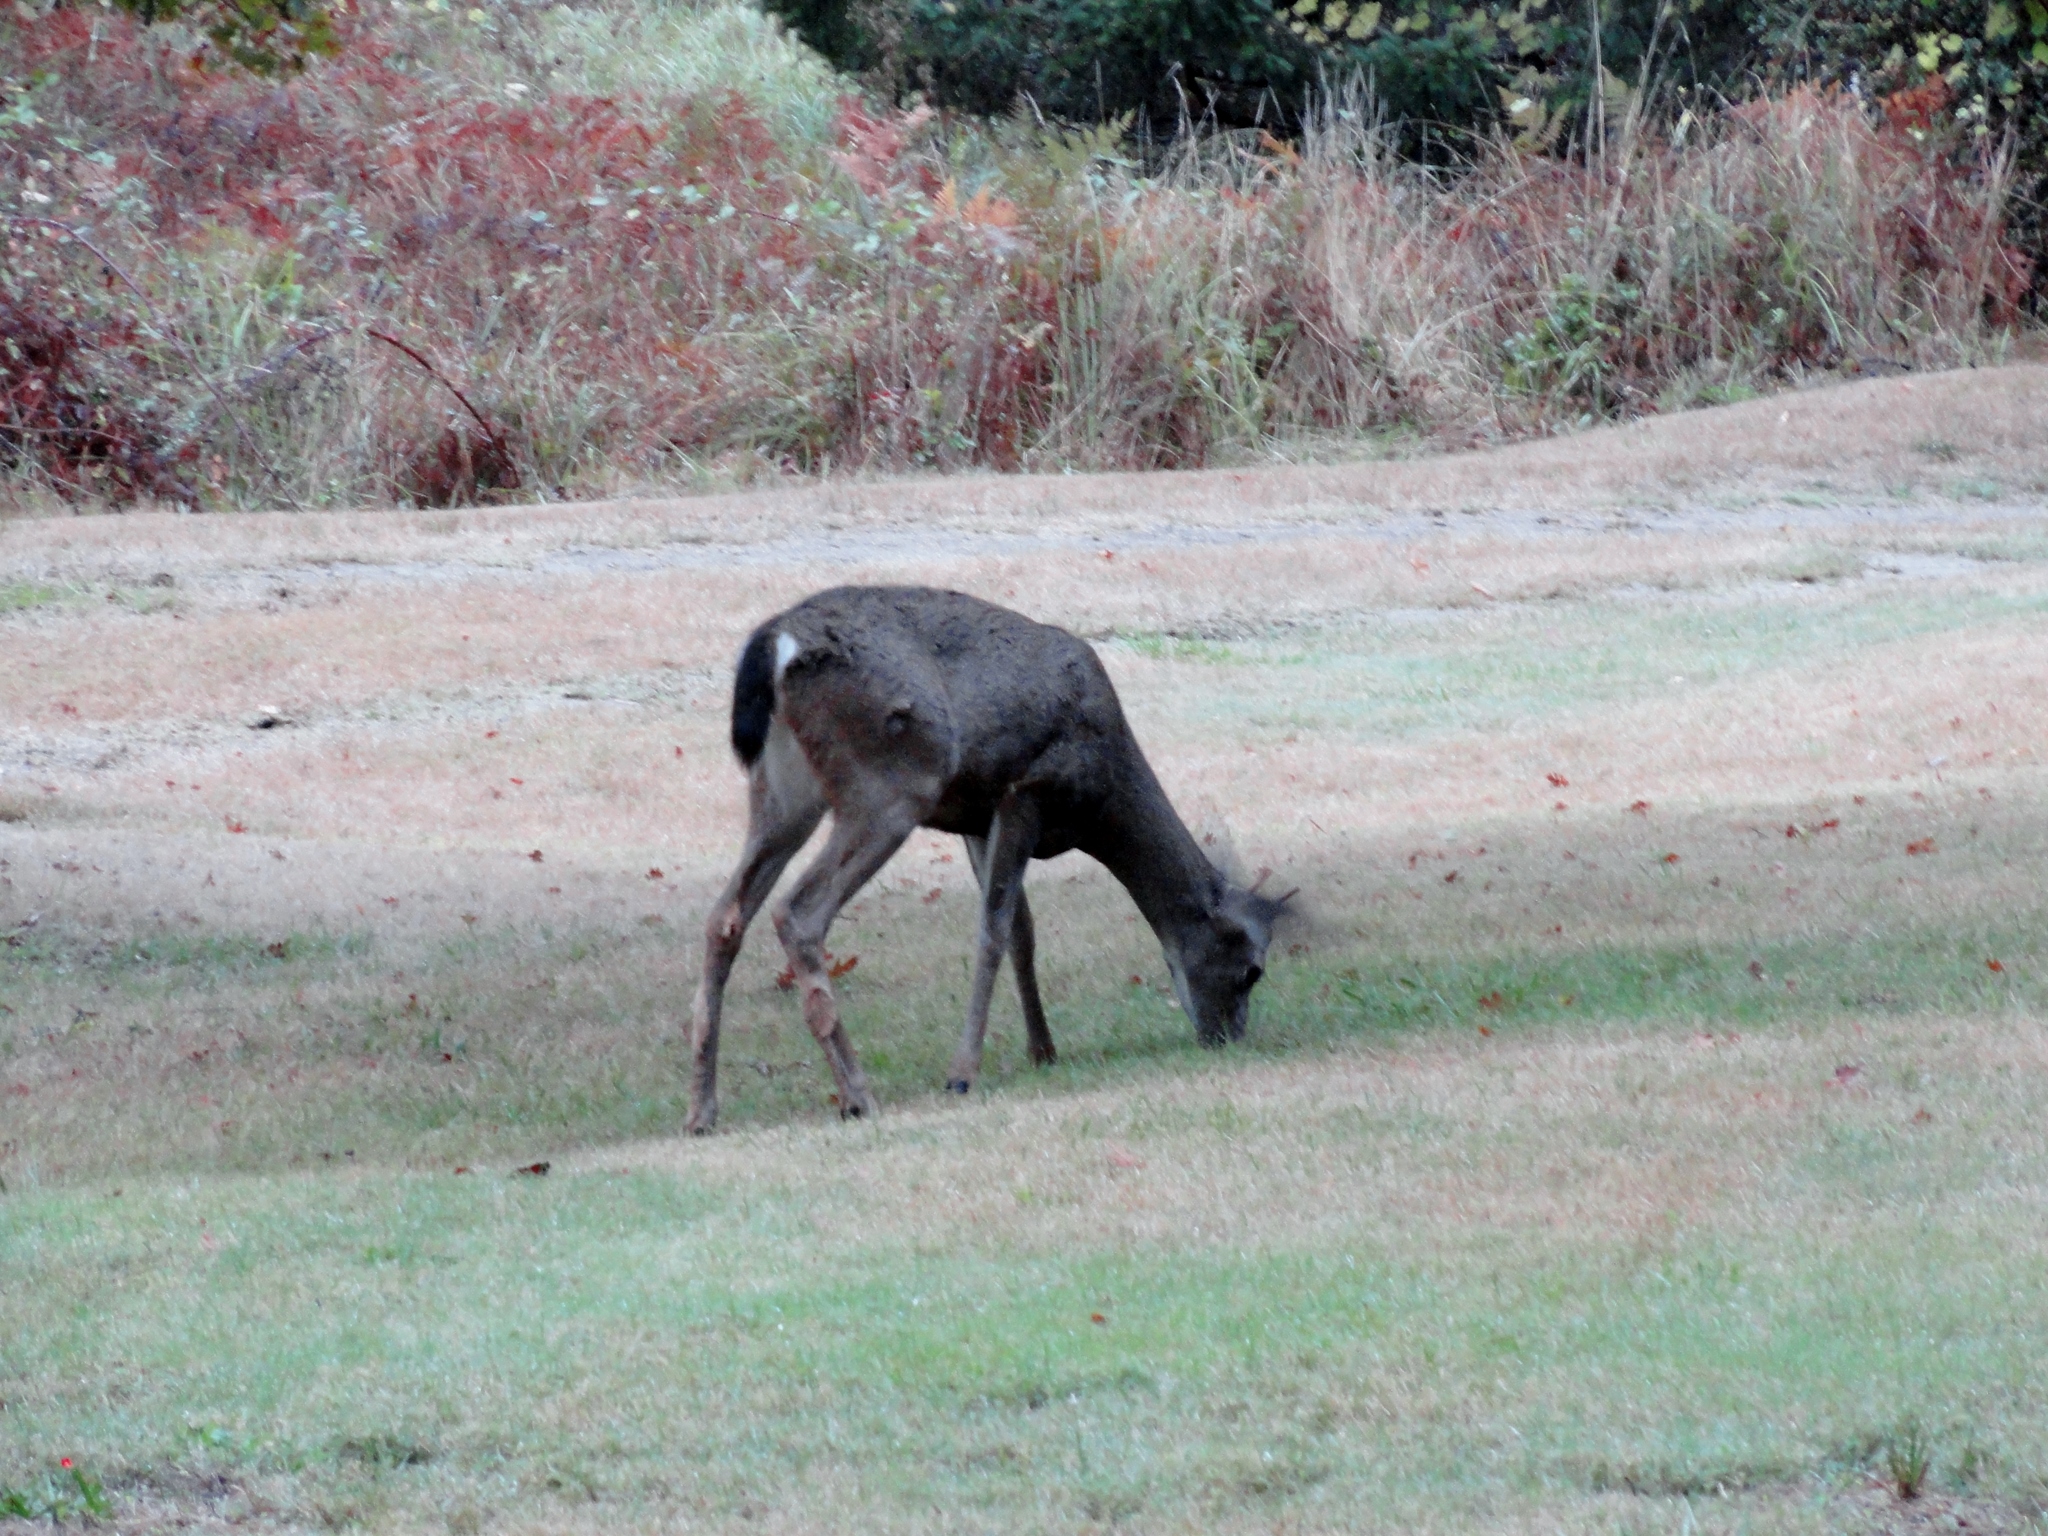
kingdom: Animalia
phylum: Chordata
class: Mammalia
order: Artiodactyla
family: Cervidae
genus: Odocoileus
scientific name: Odocoileus hemionus
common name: Mule deer
